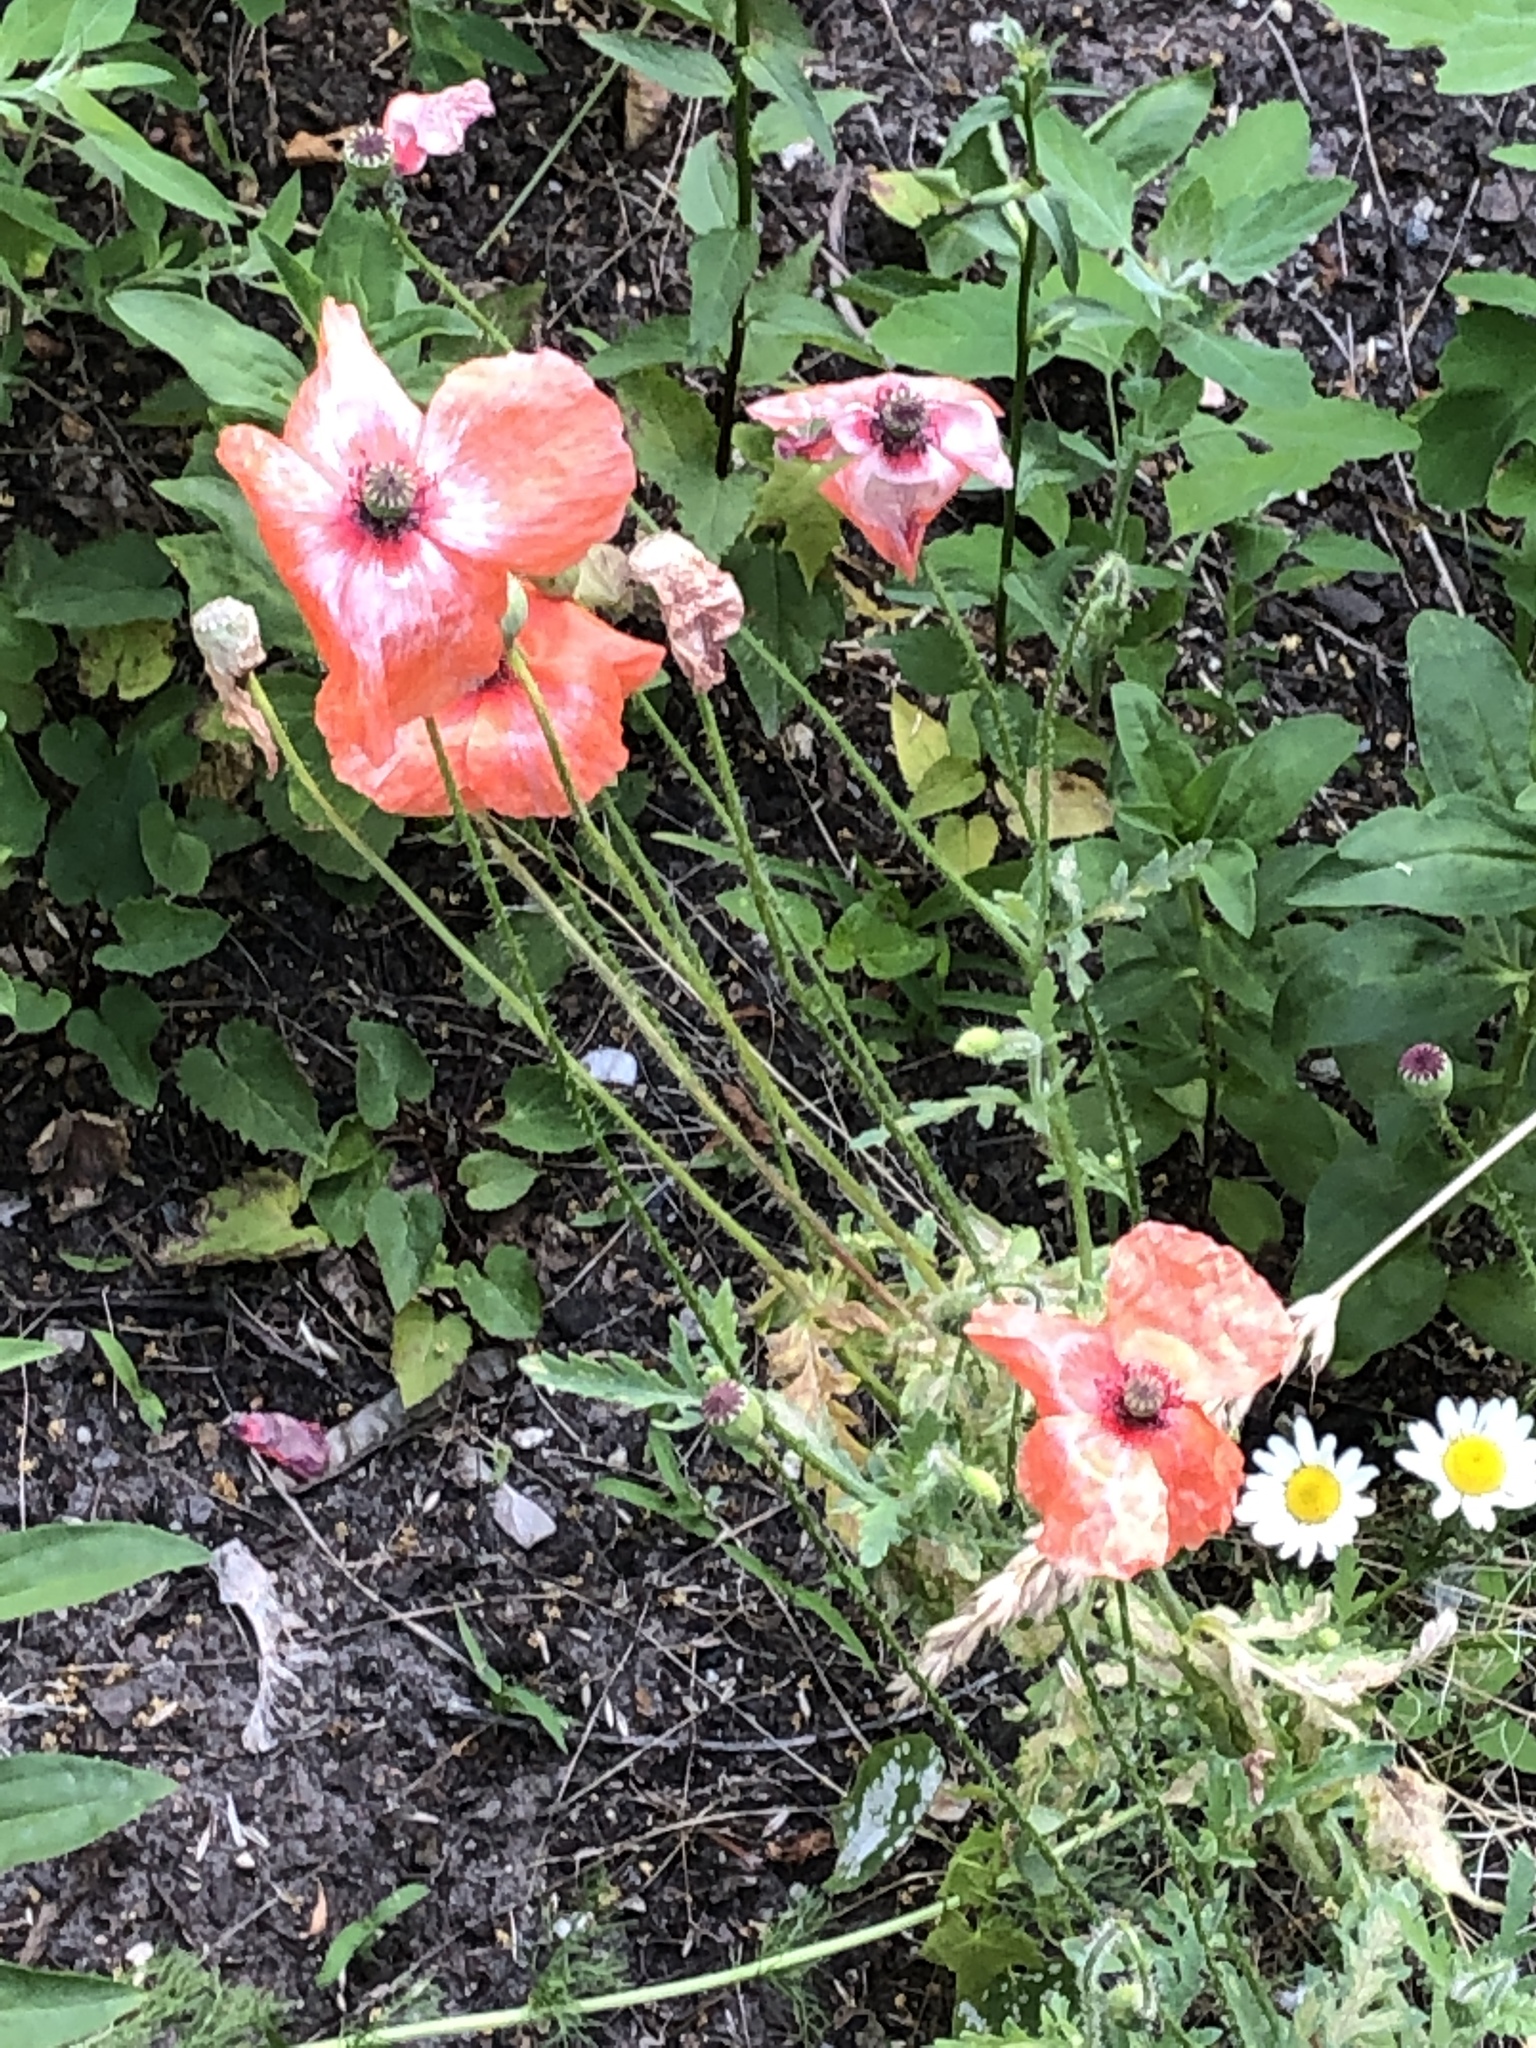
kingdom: Plantae
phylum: Tracheophyta
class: Magnoliopsida
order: Ranunculales
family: Papaveraceae
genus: Papaver
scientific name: Papaver rhoeas
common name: Corn poppy
